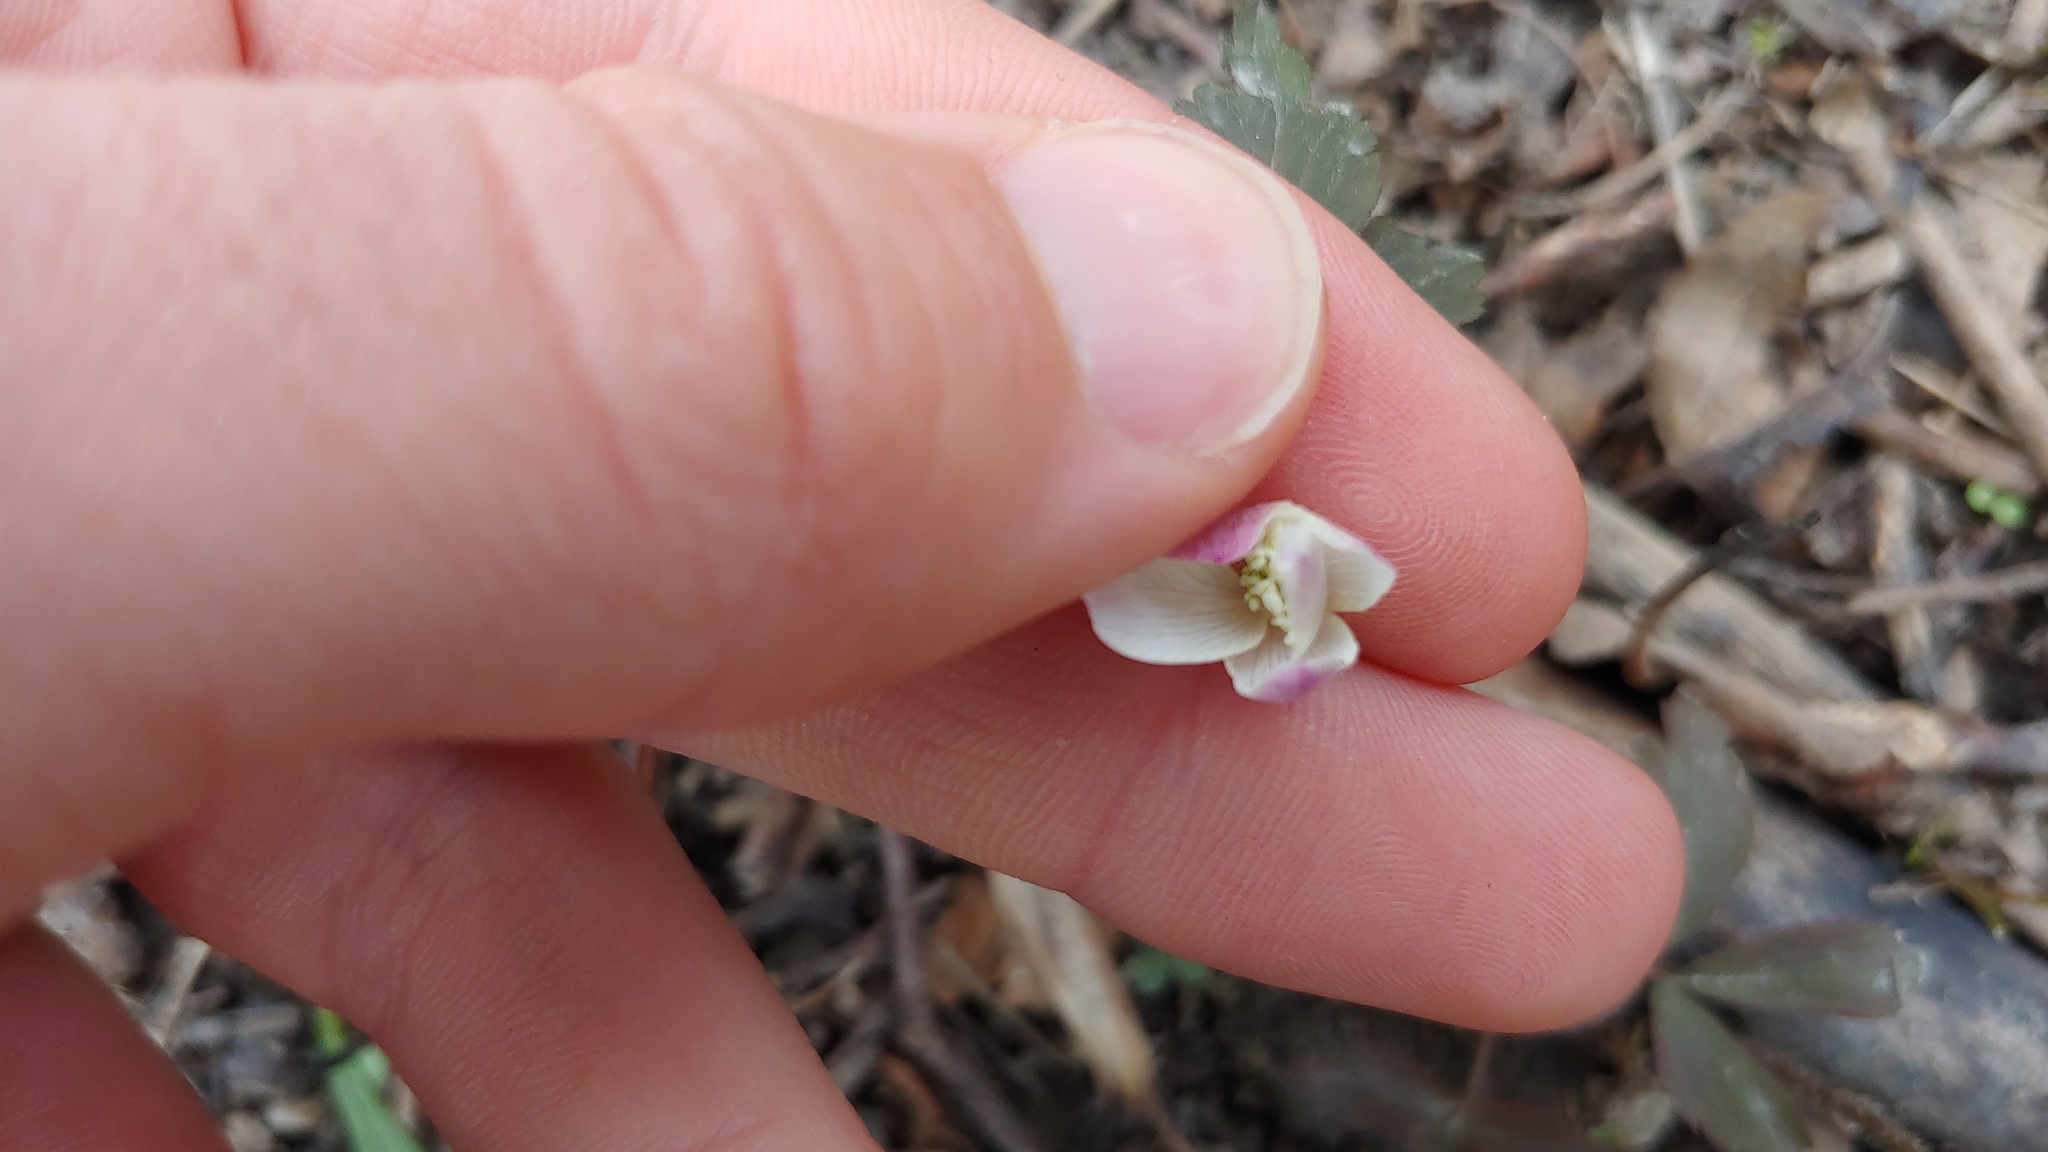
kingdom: Plantae
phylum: Tracheophyta
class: Magnoliopsida
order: Ranunculales
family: Ranunculaceae
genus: Anemone
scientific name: Anemone quinquefolia
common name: Wood anemone
